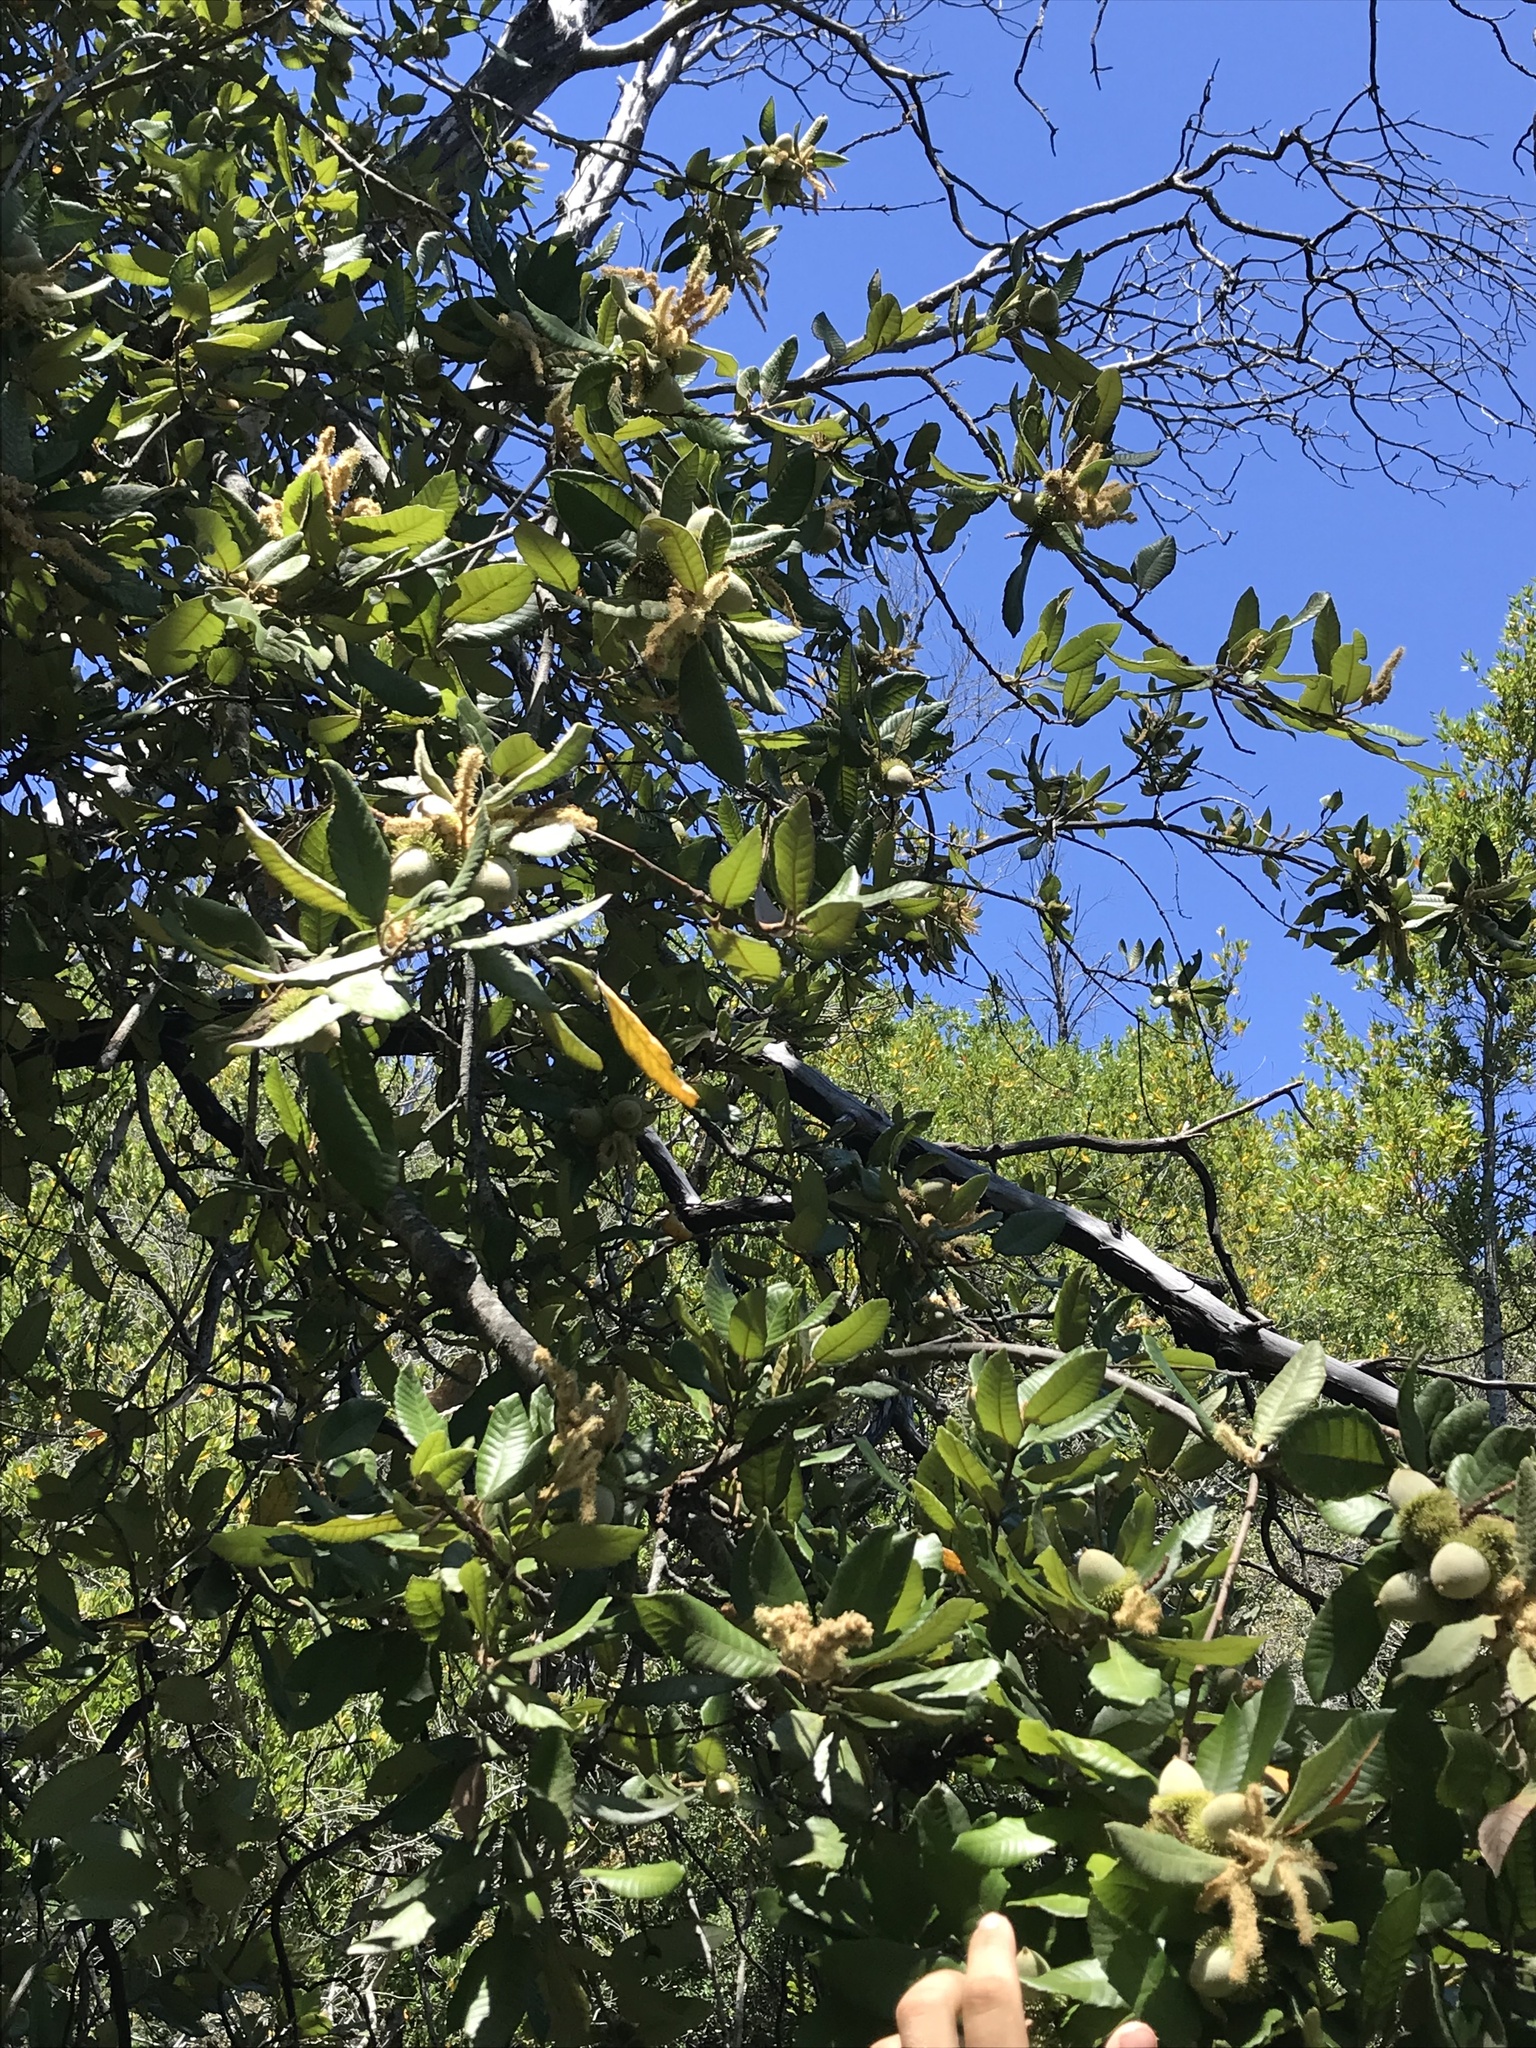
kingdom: Plantae
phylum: Tracheophyta
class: Magnoliopsida
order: Fagales
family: Fagaceae
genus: Notholithocarpus
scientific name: Notholithocarpus densiflorus
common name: Tan bark oak
